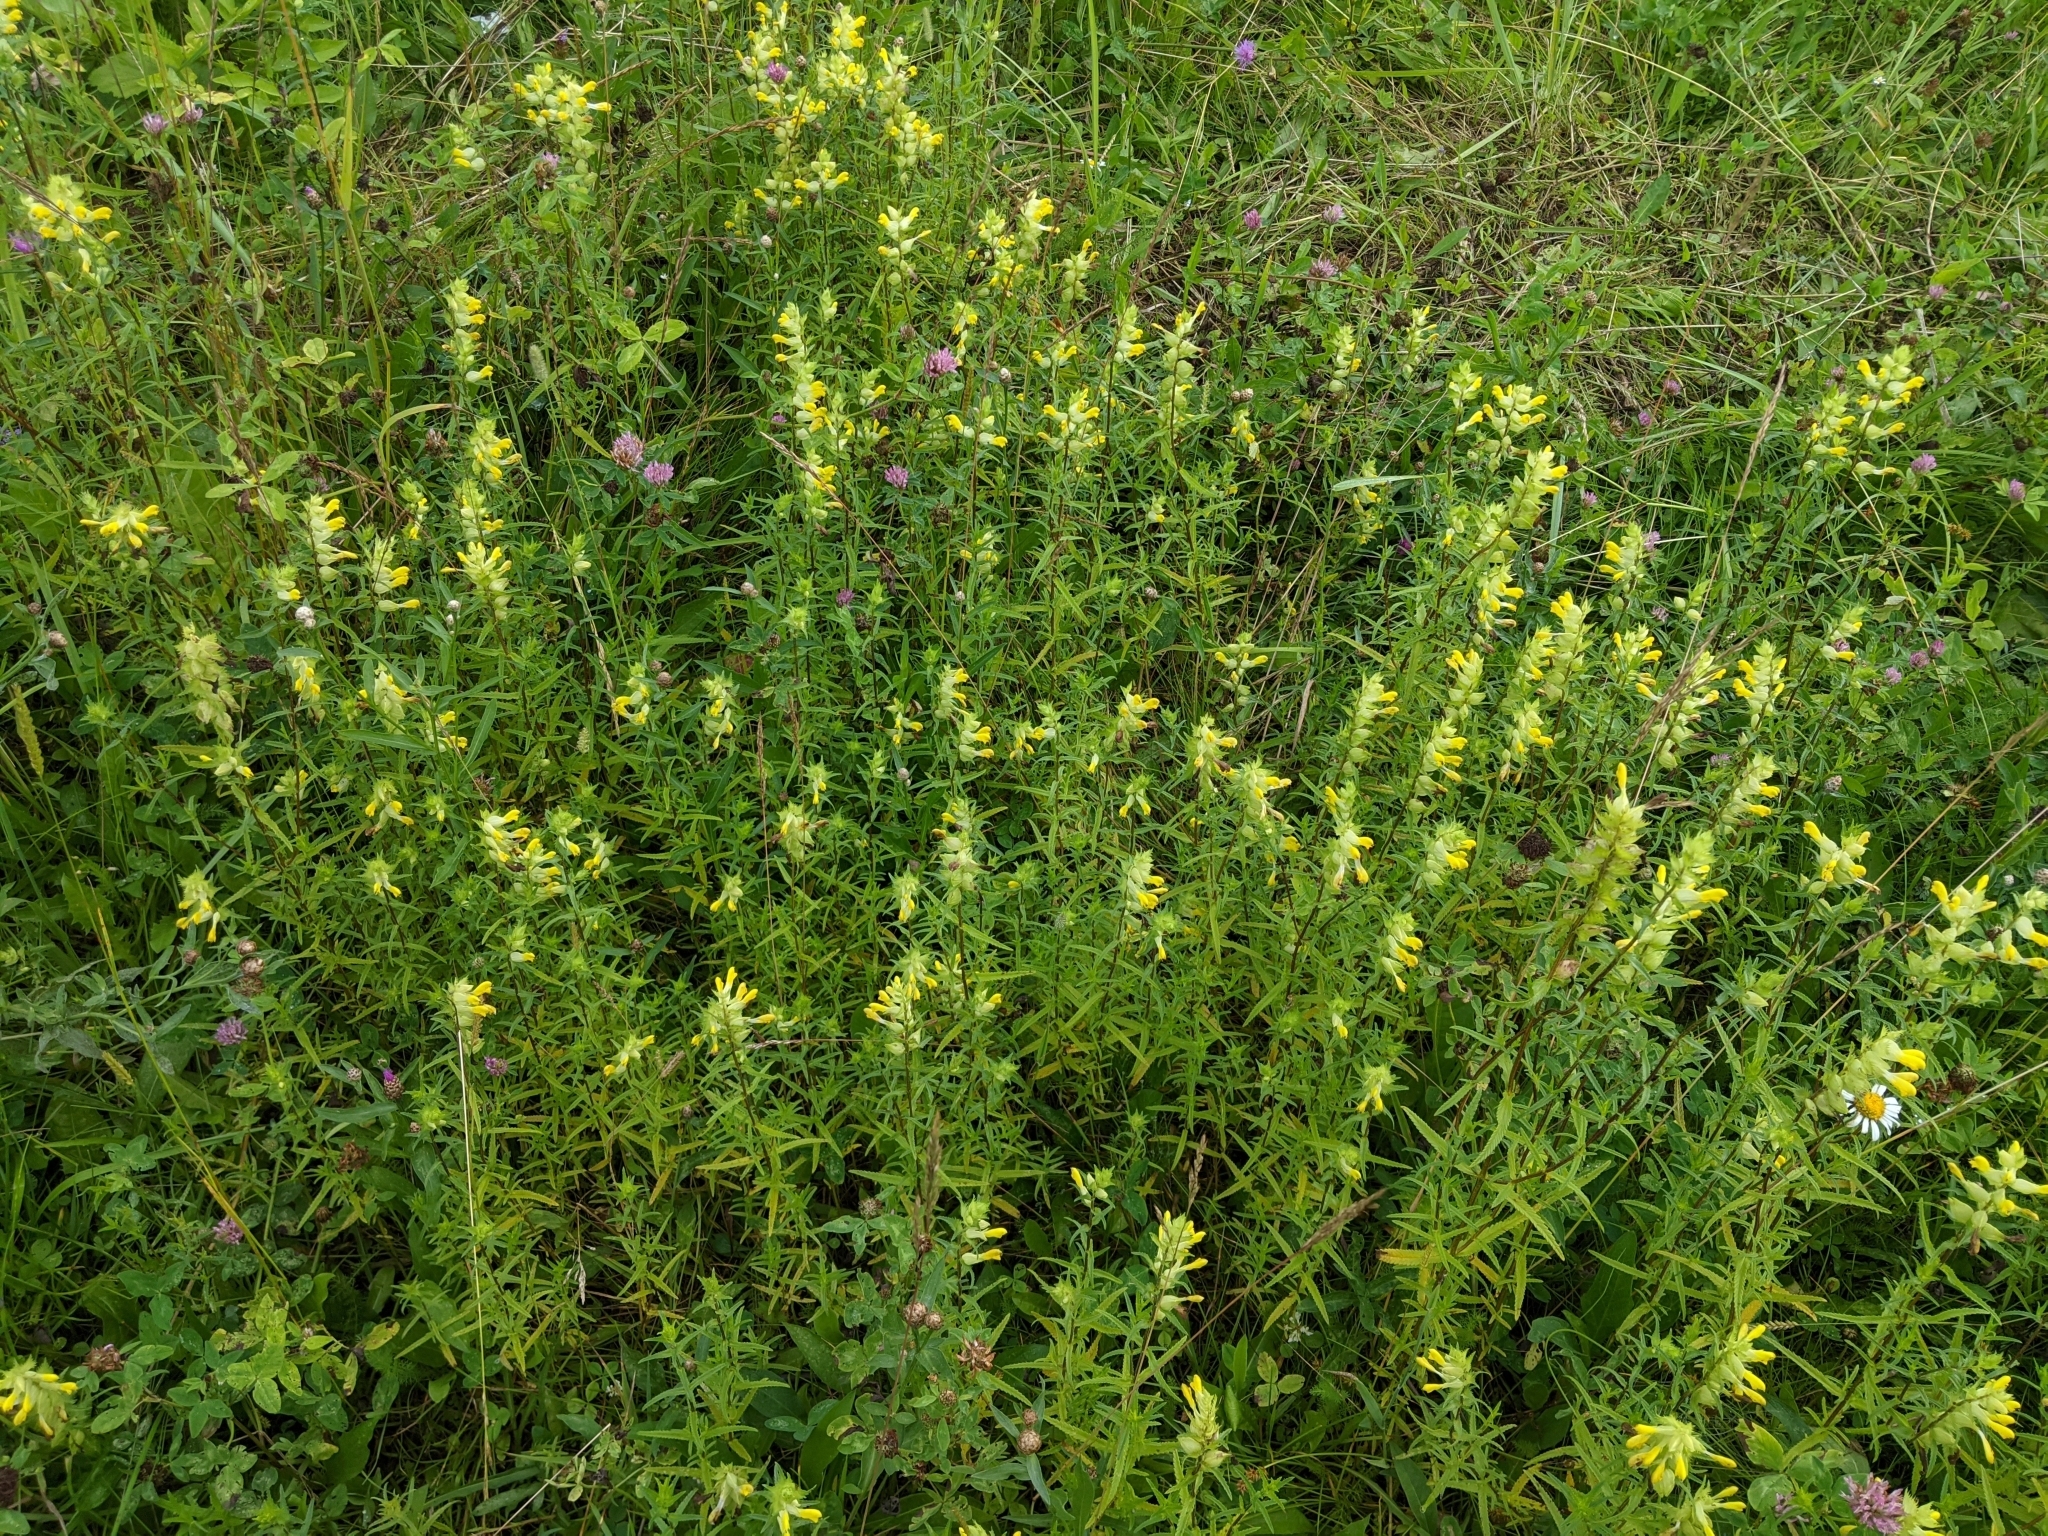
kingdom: Plantae
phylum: Tracheophyta
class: Magnoliopsida
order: Lamiales
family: Orobanchaceae
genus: Rhinanthus
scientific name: Rhinanthus serotinus
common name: Late-flowering yellow rattle
